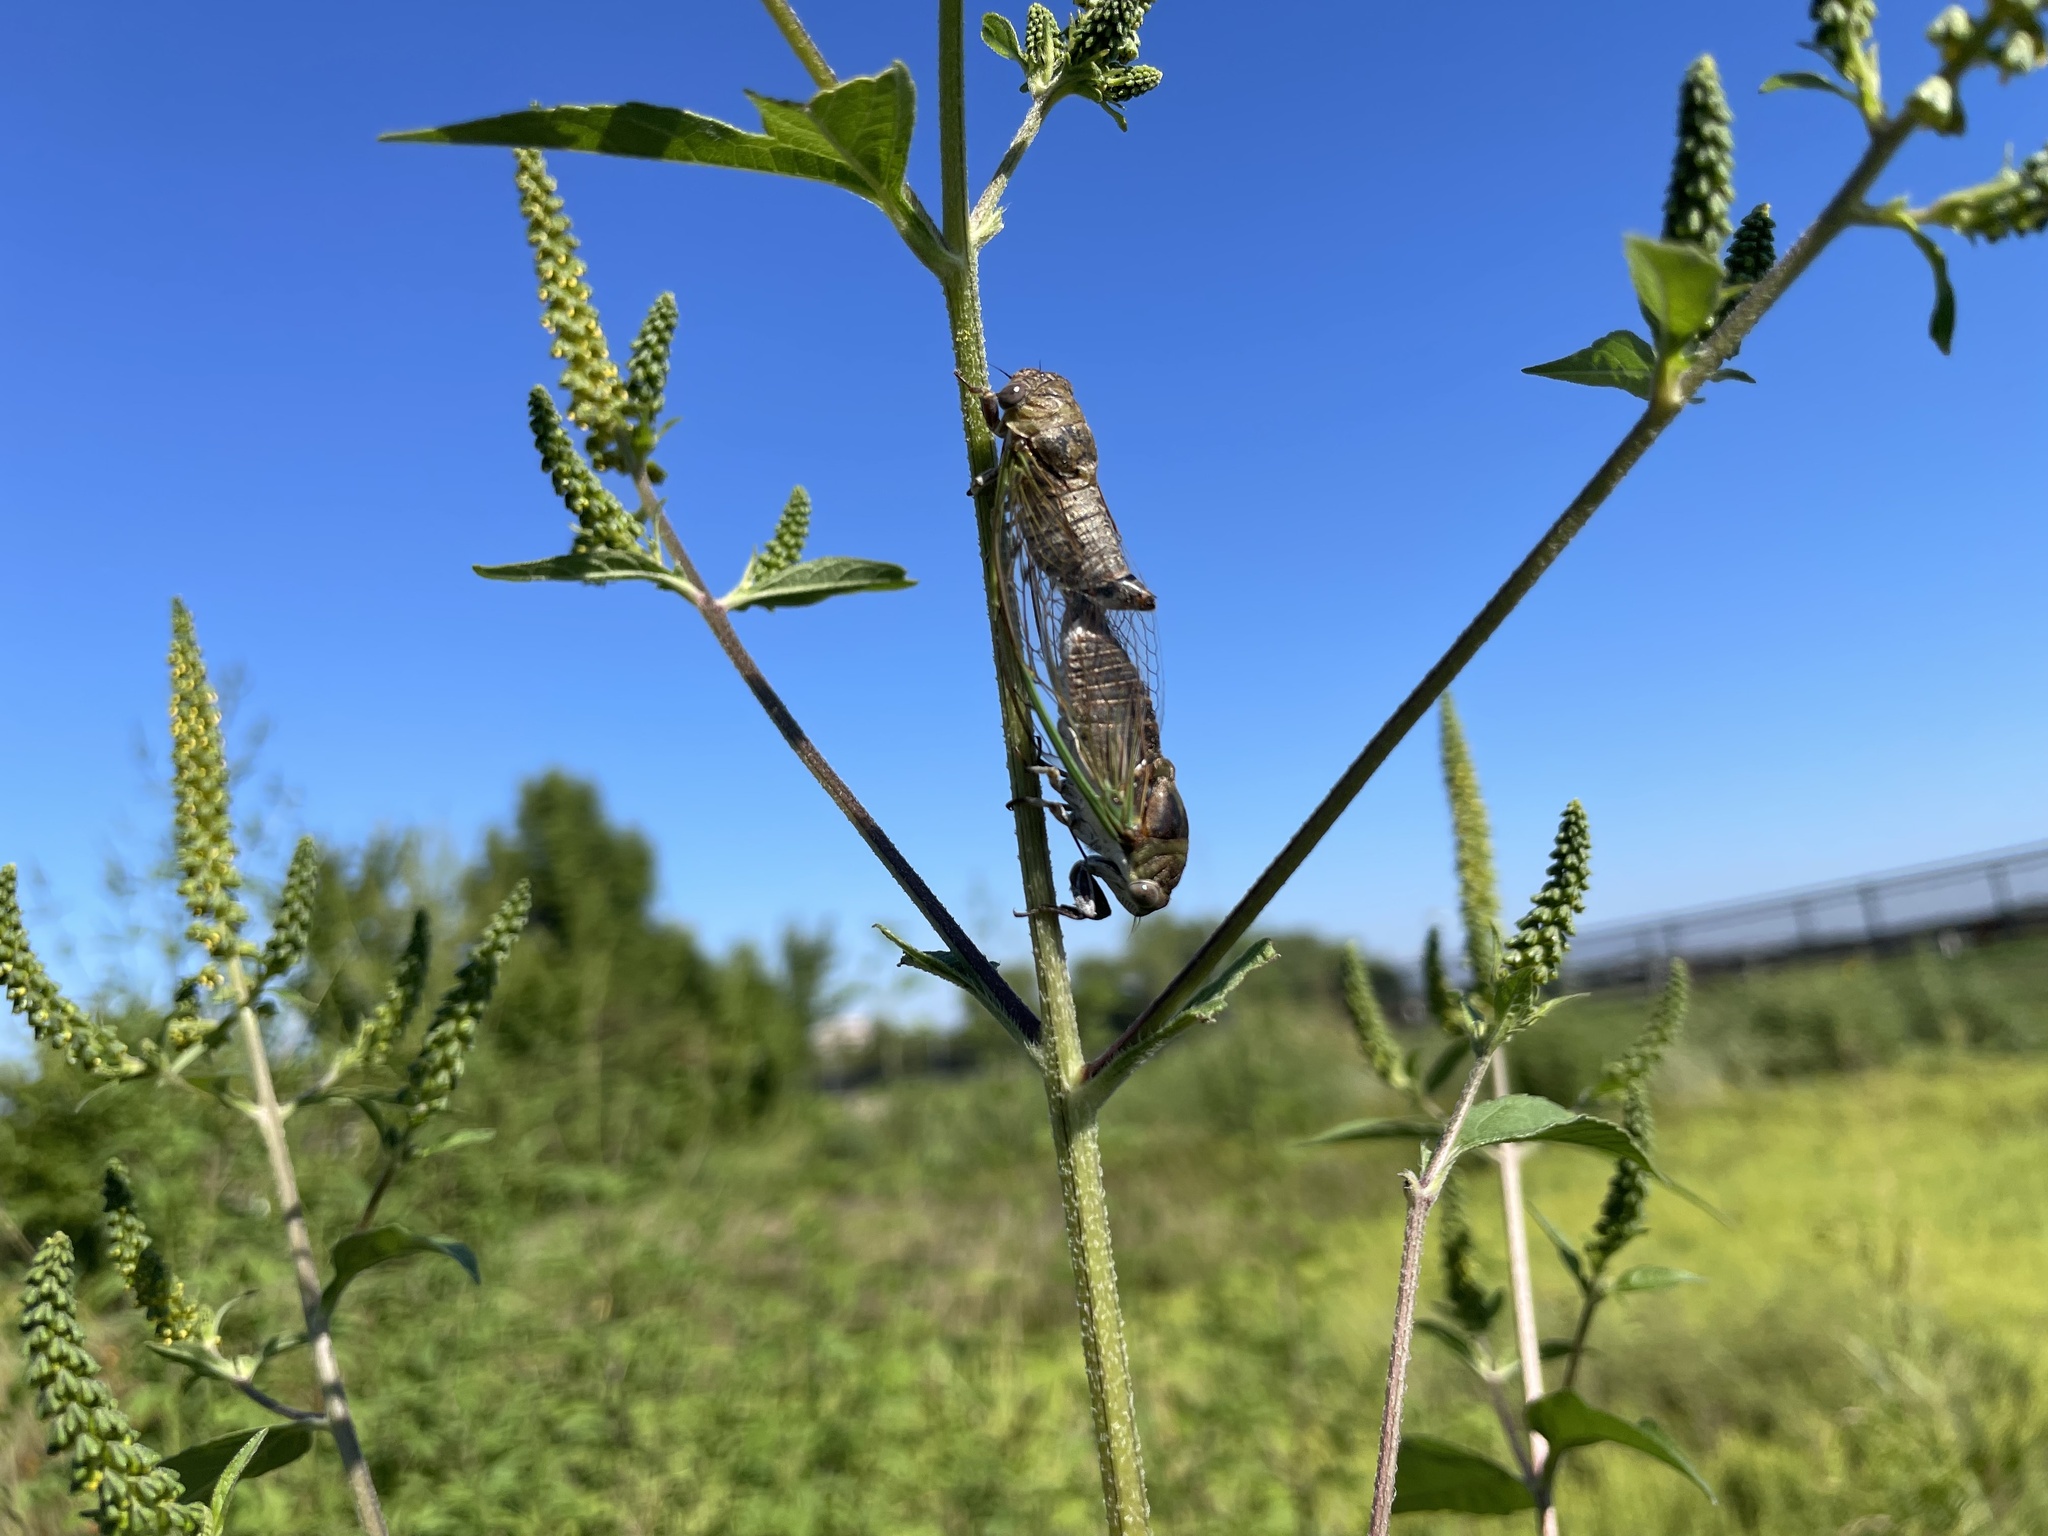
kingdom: Animalia
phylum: Arthropoda
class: Insecta
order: Hemiptera
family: Cicadidae
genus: Neotibicen
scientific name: Neotibicen aurifer
